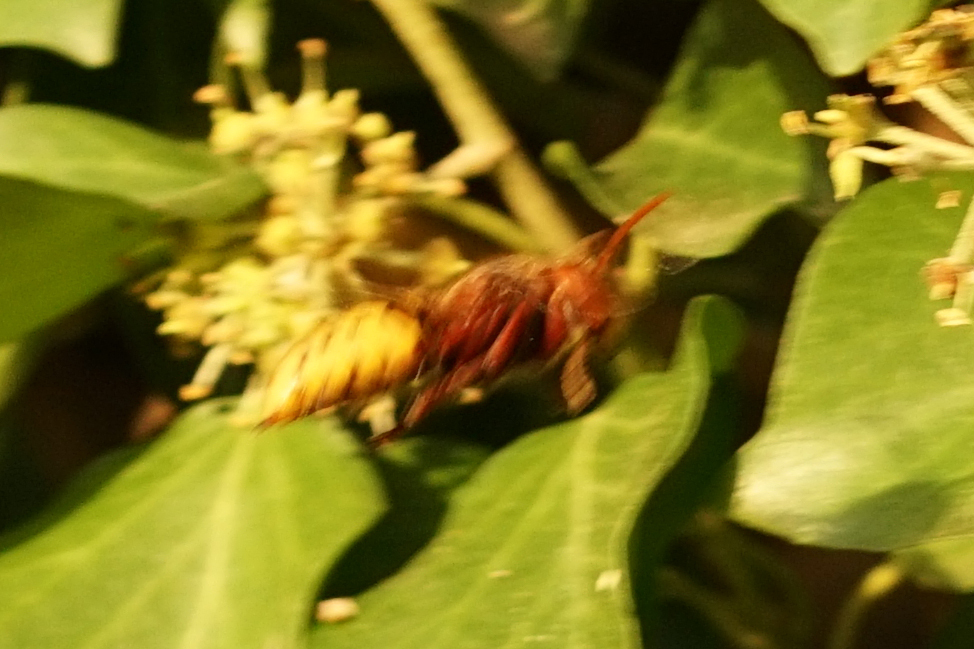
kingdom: Animalia
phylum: Arthropoda
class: Insecta
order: Hymenoptera
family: Vespidae
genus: Vespa
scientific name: Vespa crabro
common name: Hornet
